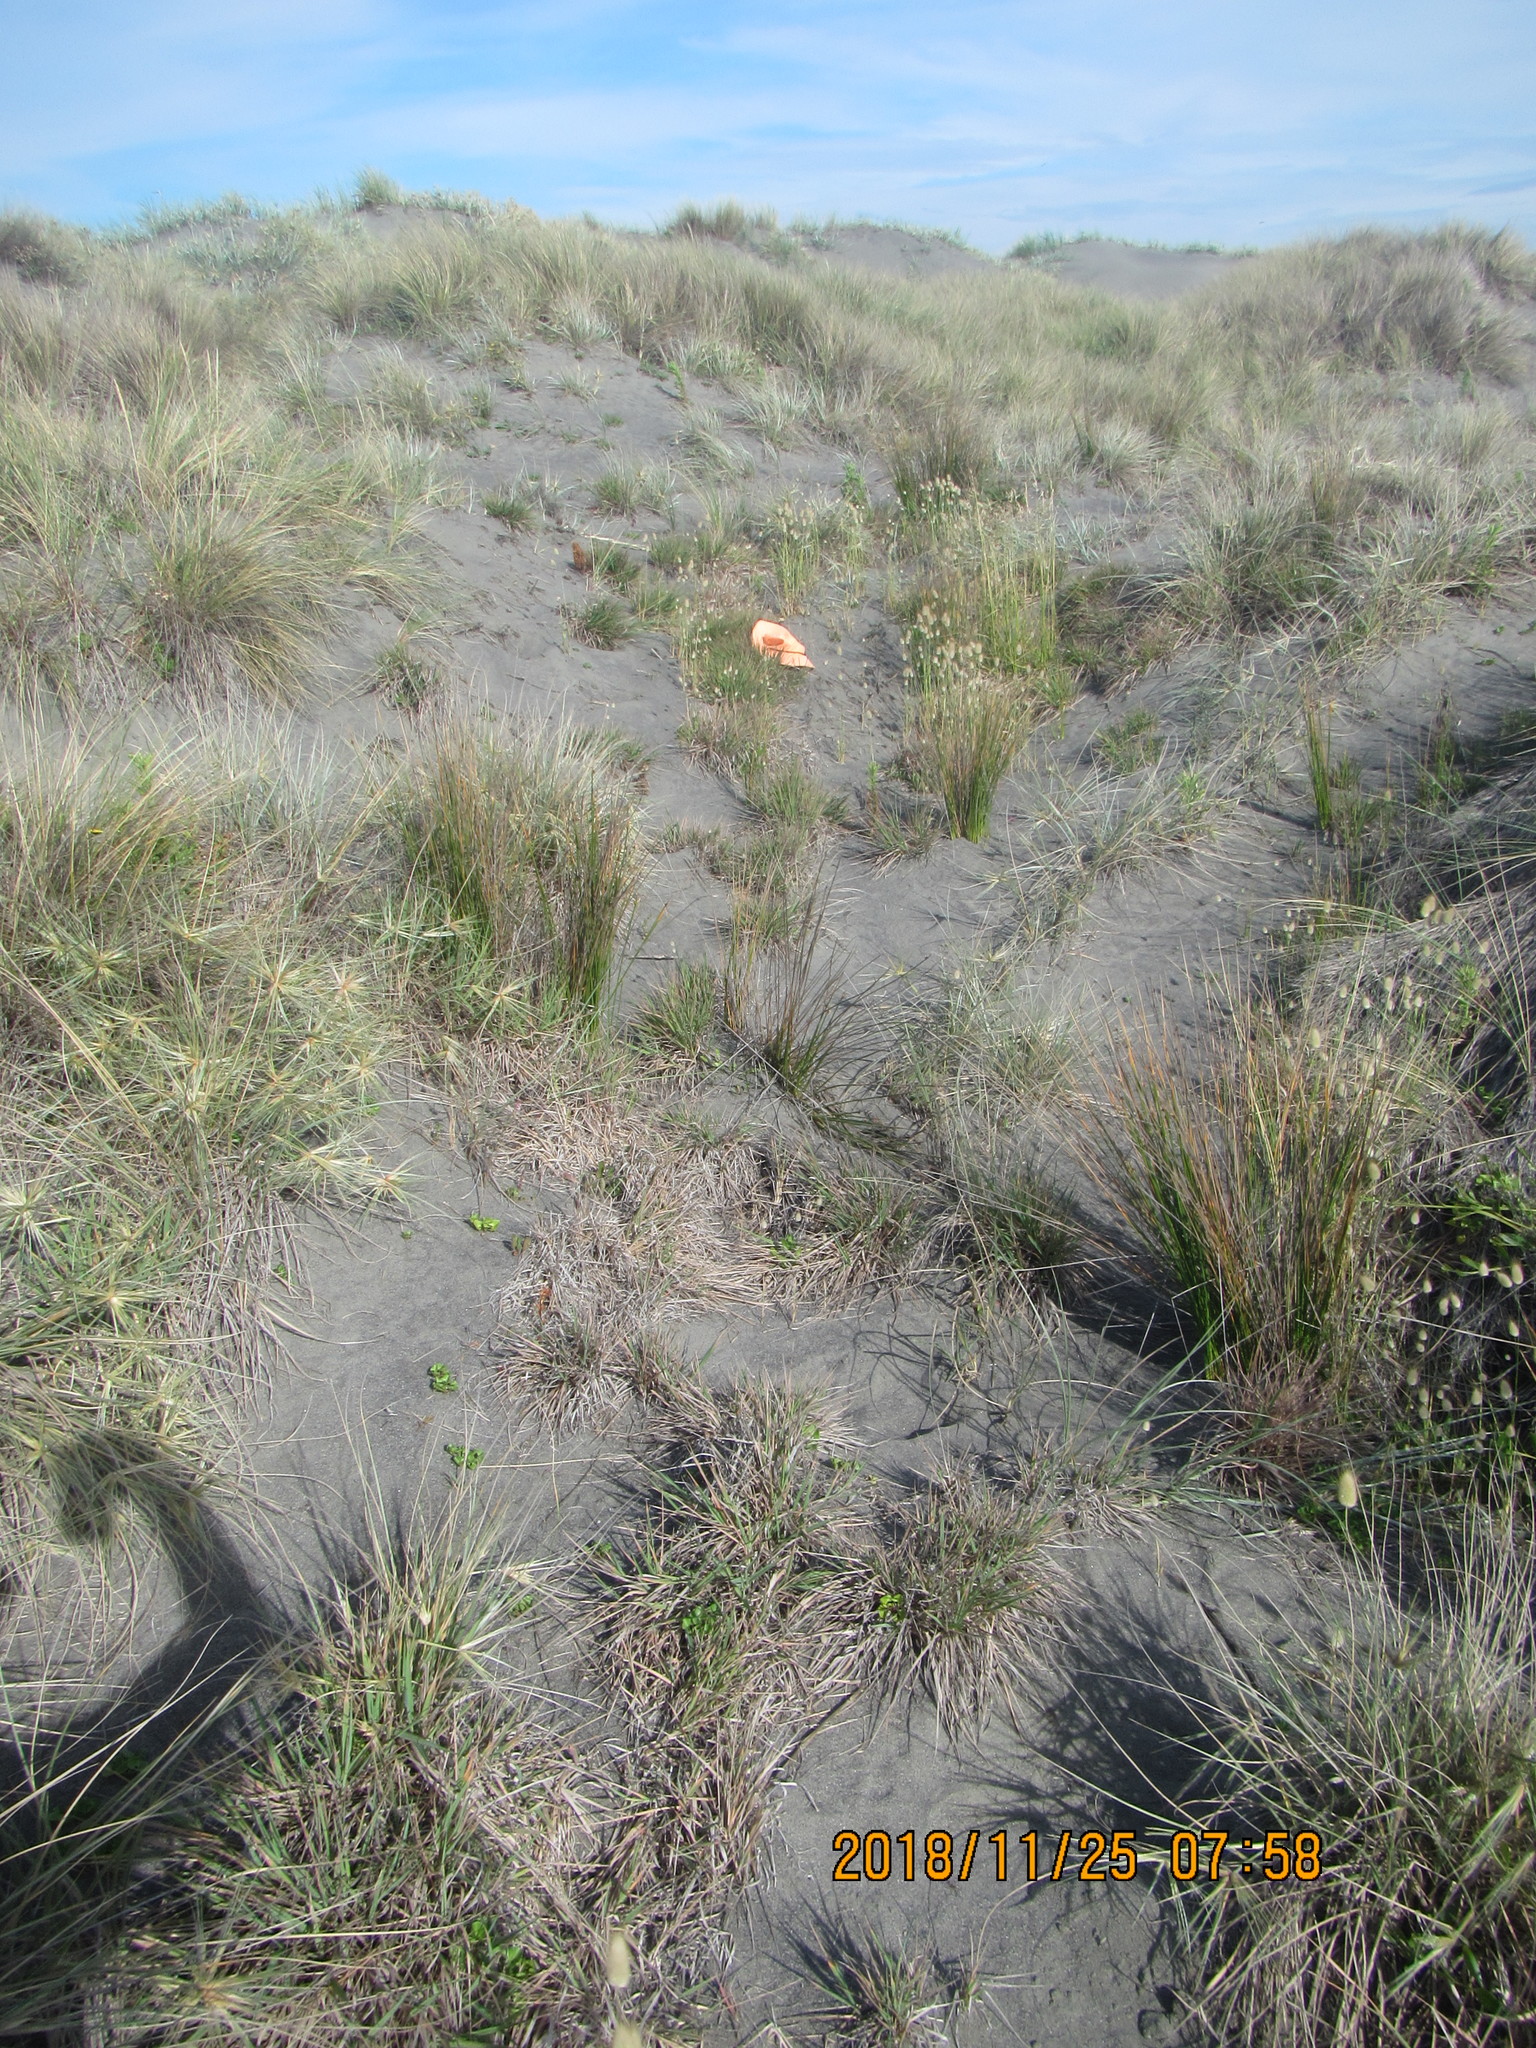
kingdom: Plantae
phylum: Tracheophyta
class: Liliopsida
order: Poales
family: Poaceae
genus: Lachnagrostis
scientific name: Lachnagrostis billardierei
